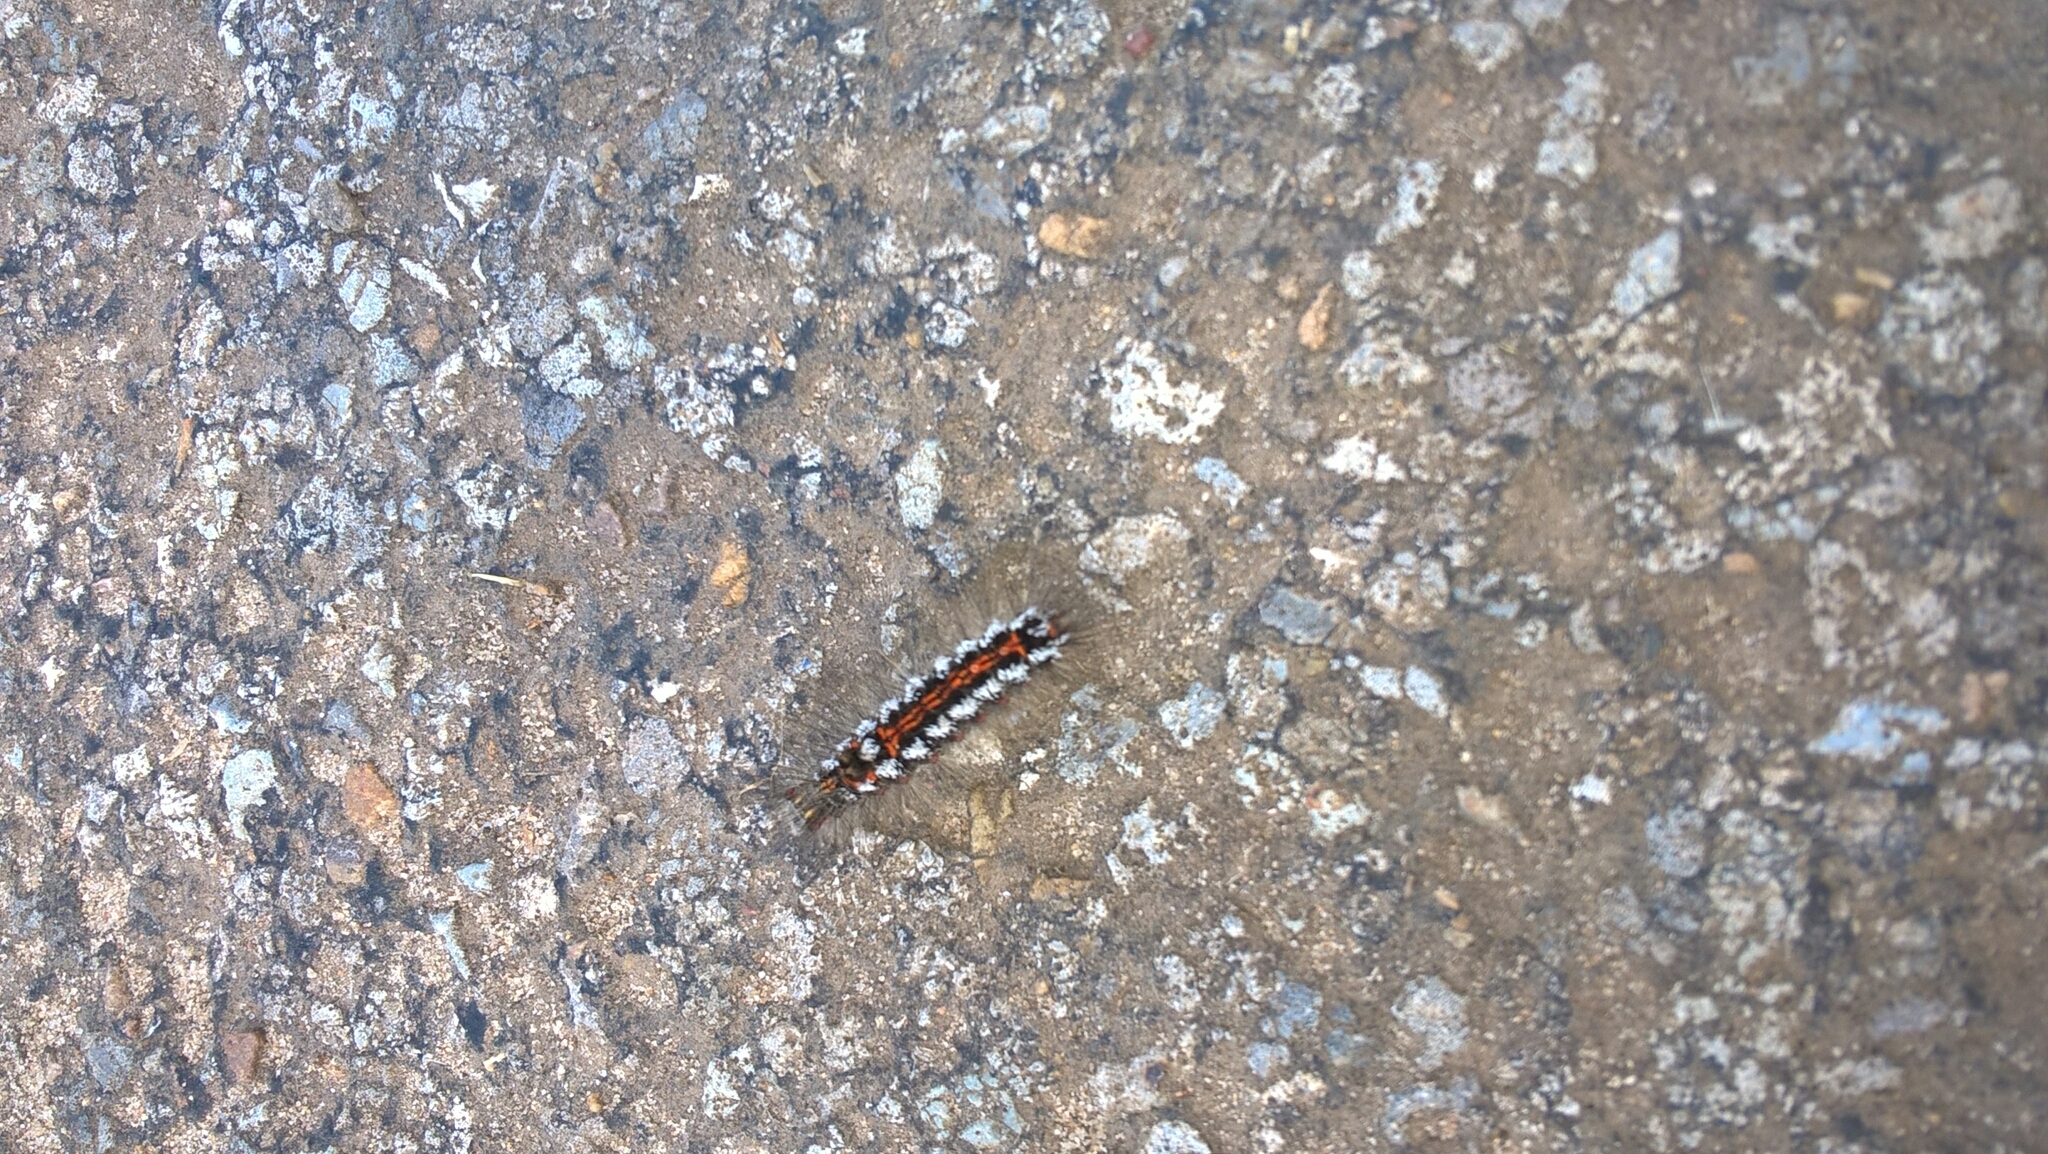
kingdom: Animalia
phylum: Arthropoda
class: Insecta
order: Lepidoptera
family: Erebidae
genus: Sphrageidus
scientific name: Sphrageidus similis
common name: Yellow-tail
